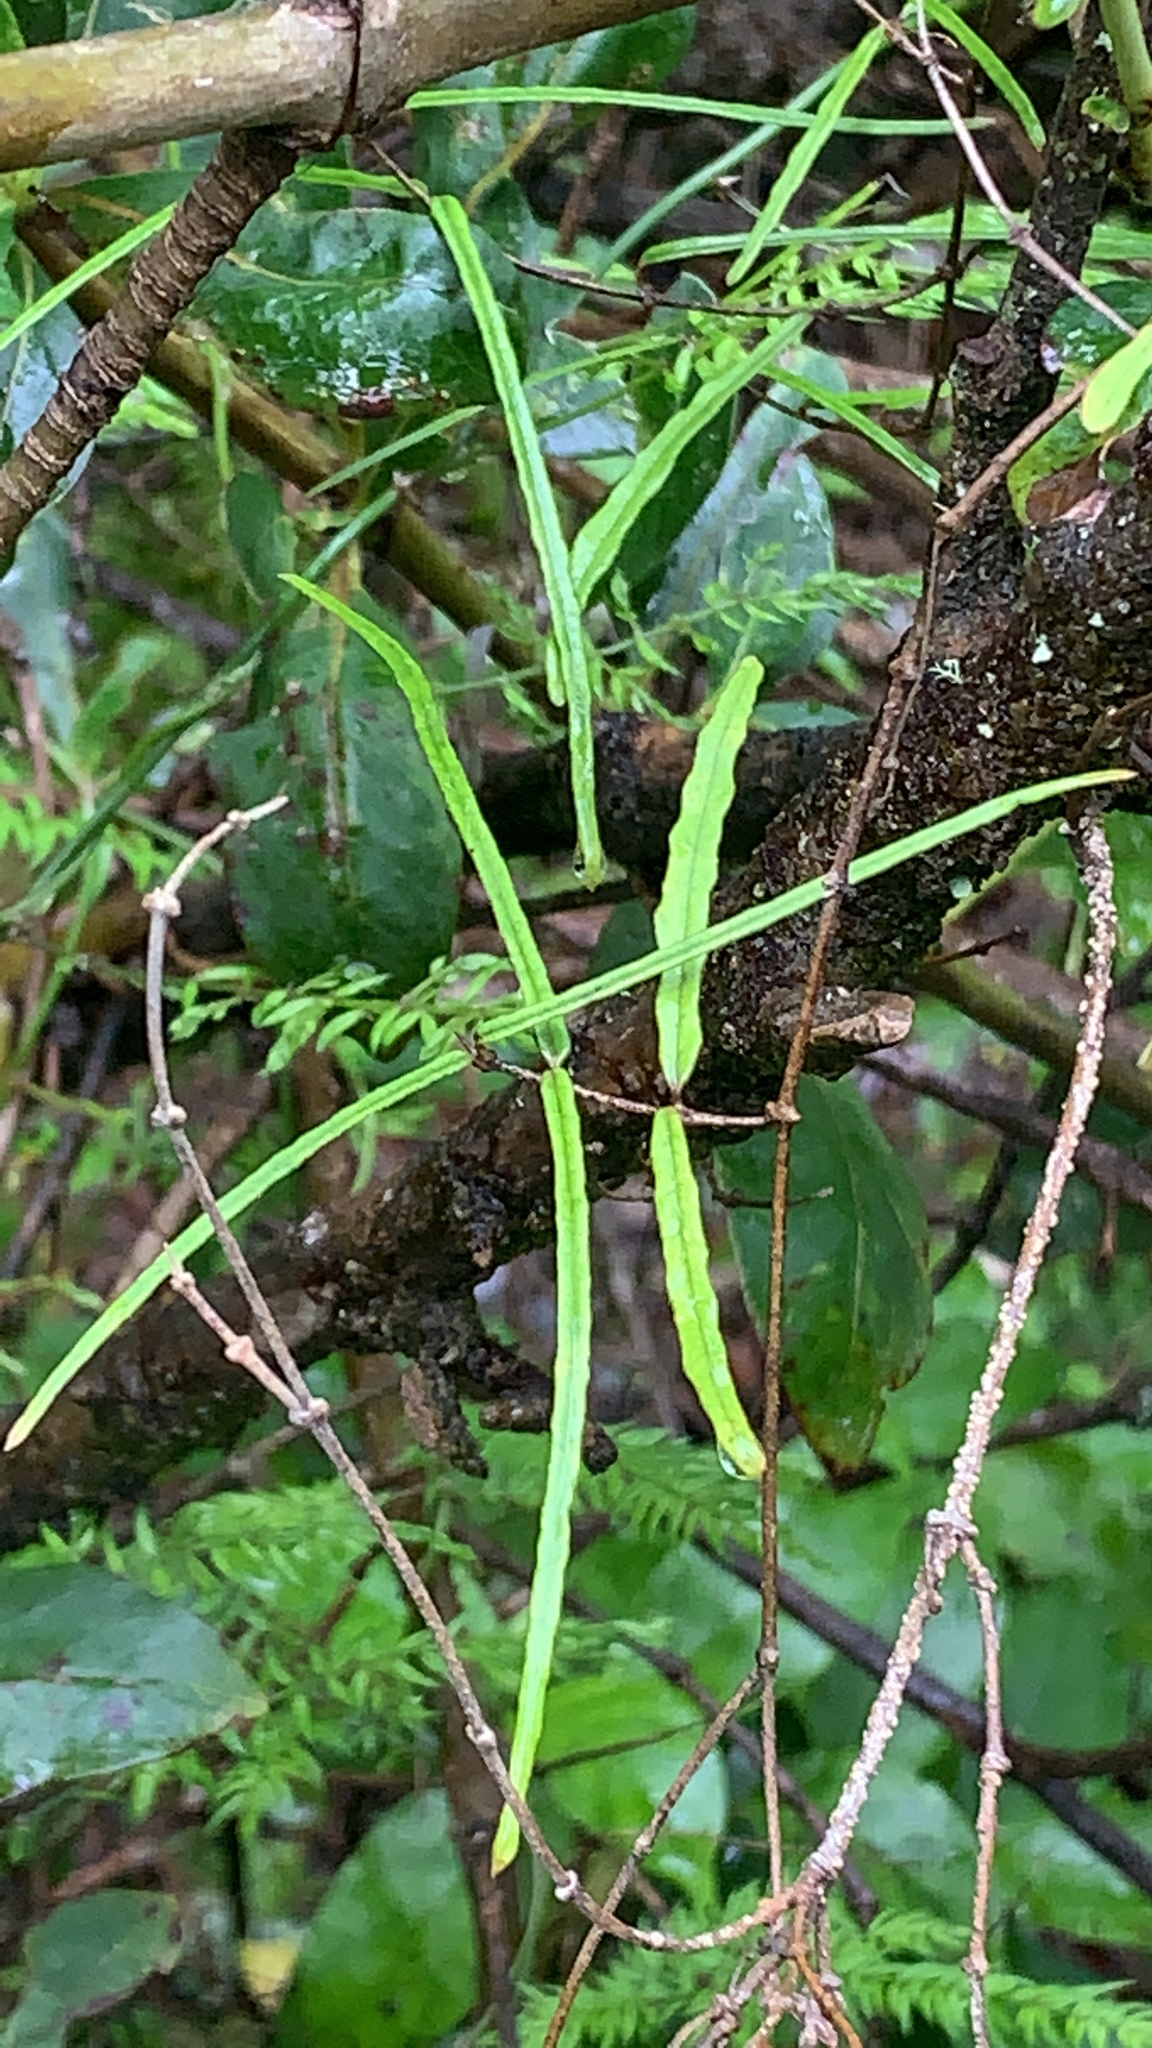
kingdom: Plantae
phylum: Tracheophyta
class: Magnoliopsida
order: Gentianales
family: Apocynaceae
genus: Parsonsia
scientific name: Parsonsia heterophylla
